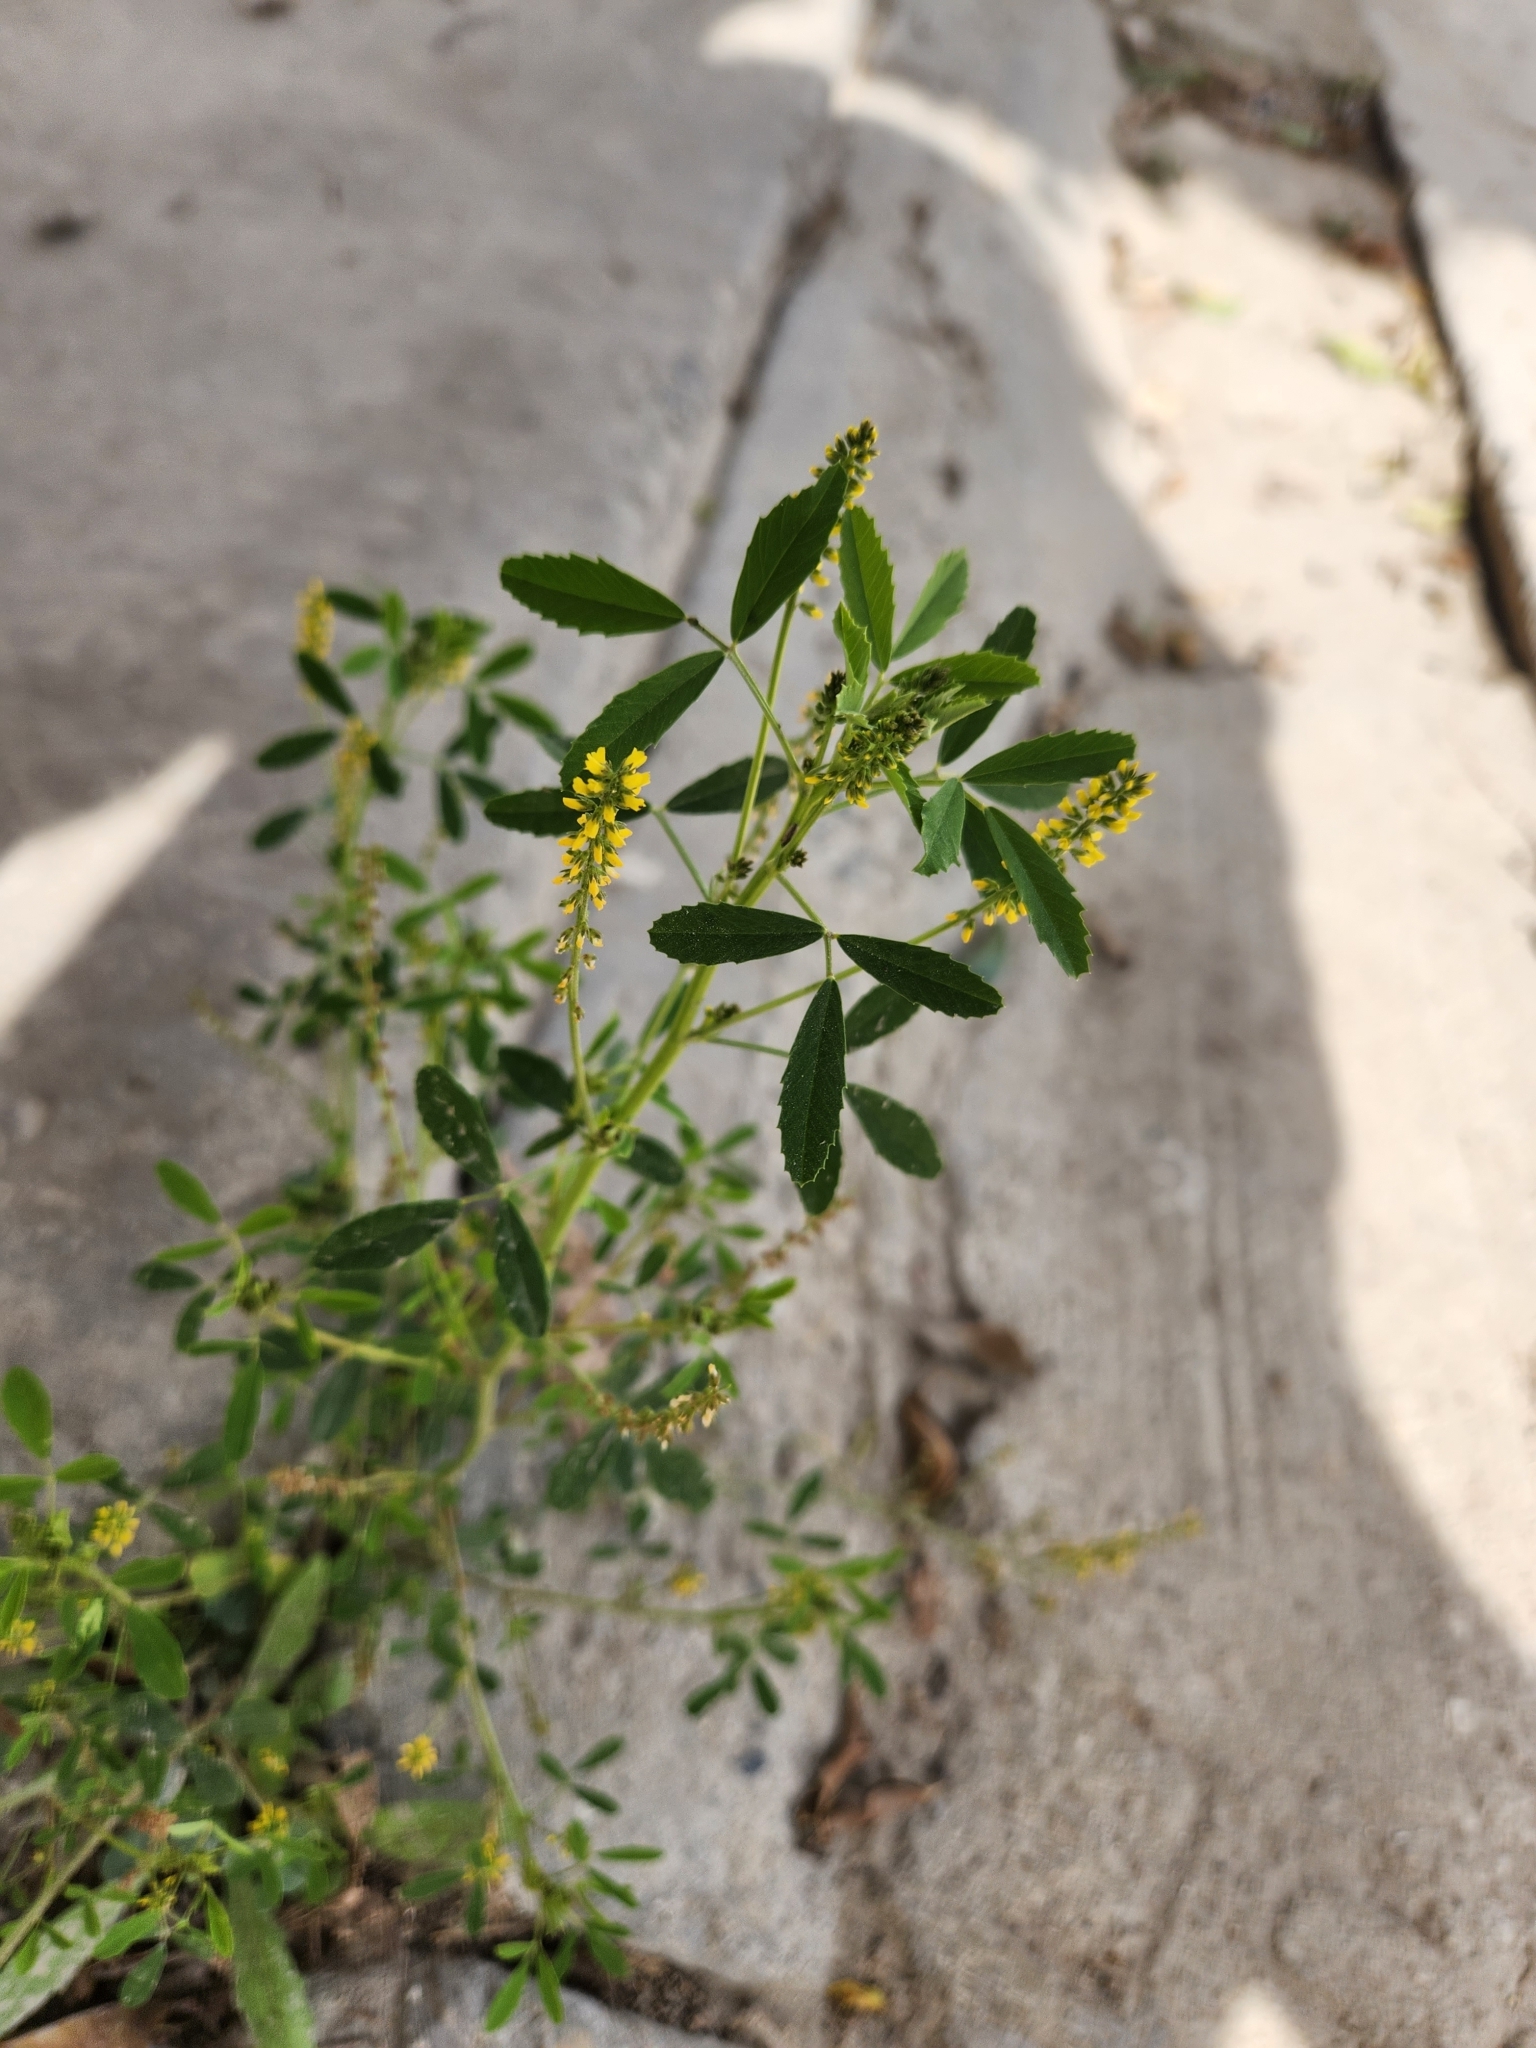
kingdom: Plantae
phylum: Tracheophyta
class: Magnoliopsida
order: Fabales
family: Fabaceae
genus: Melilotus
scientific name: Melilotus indicus
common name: Small melilot
